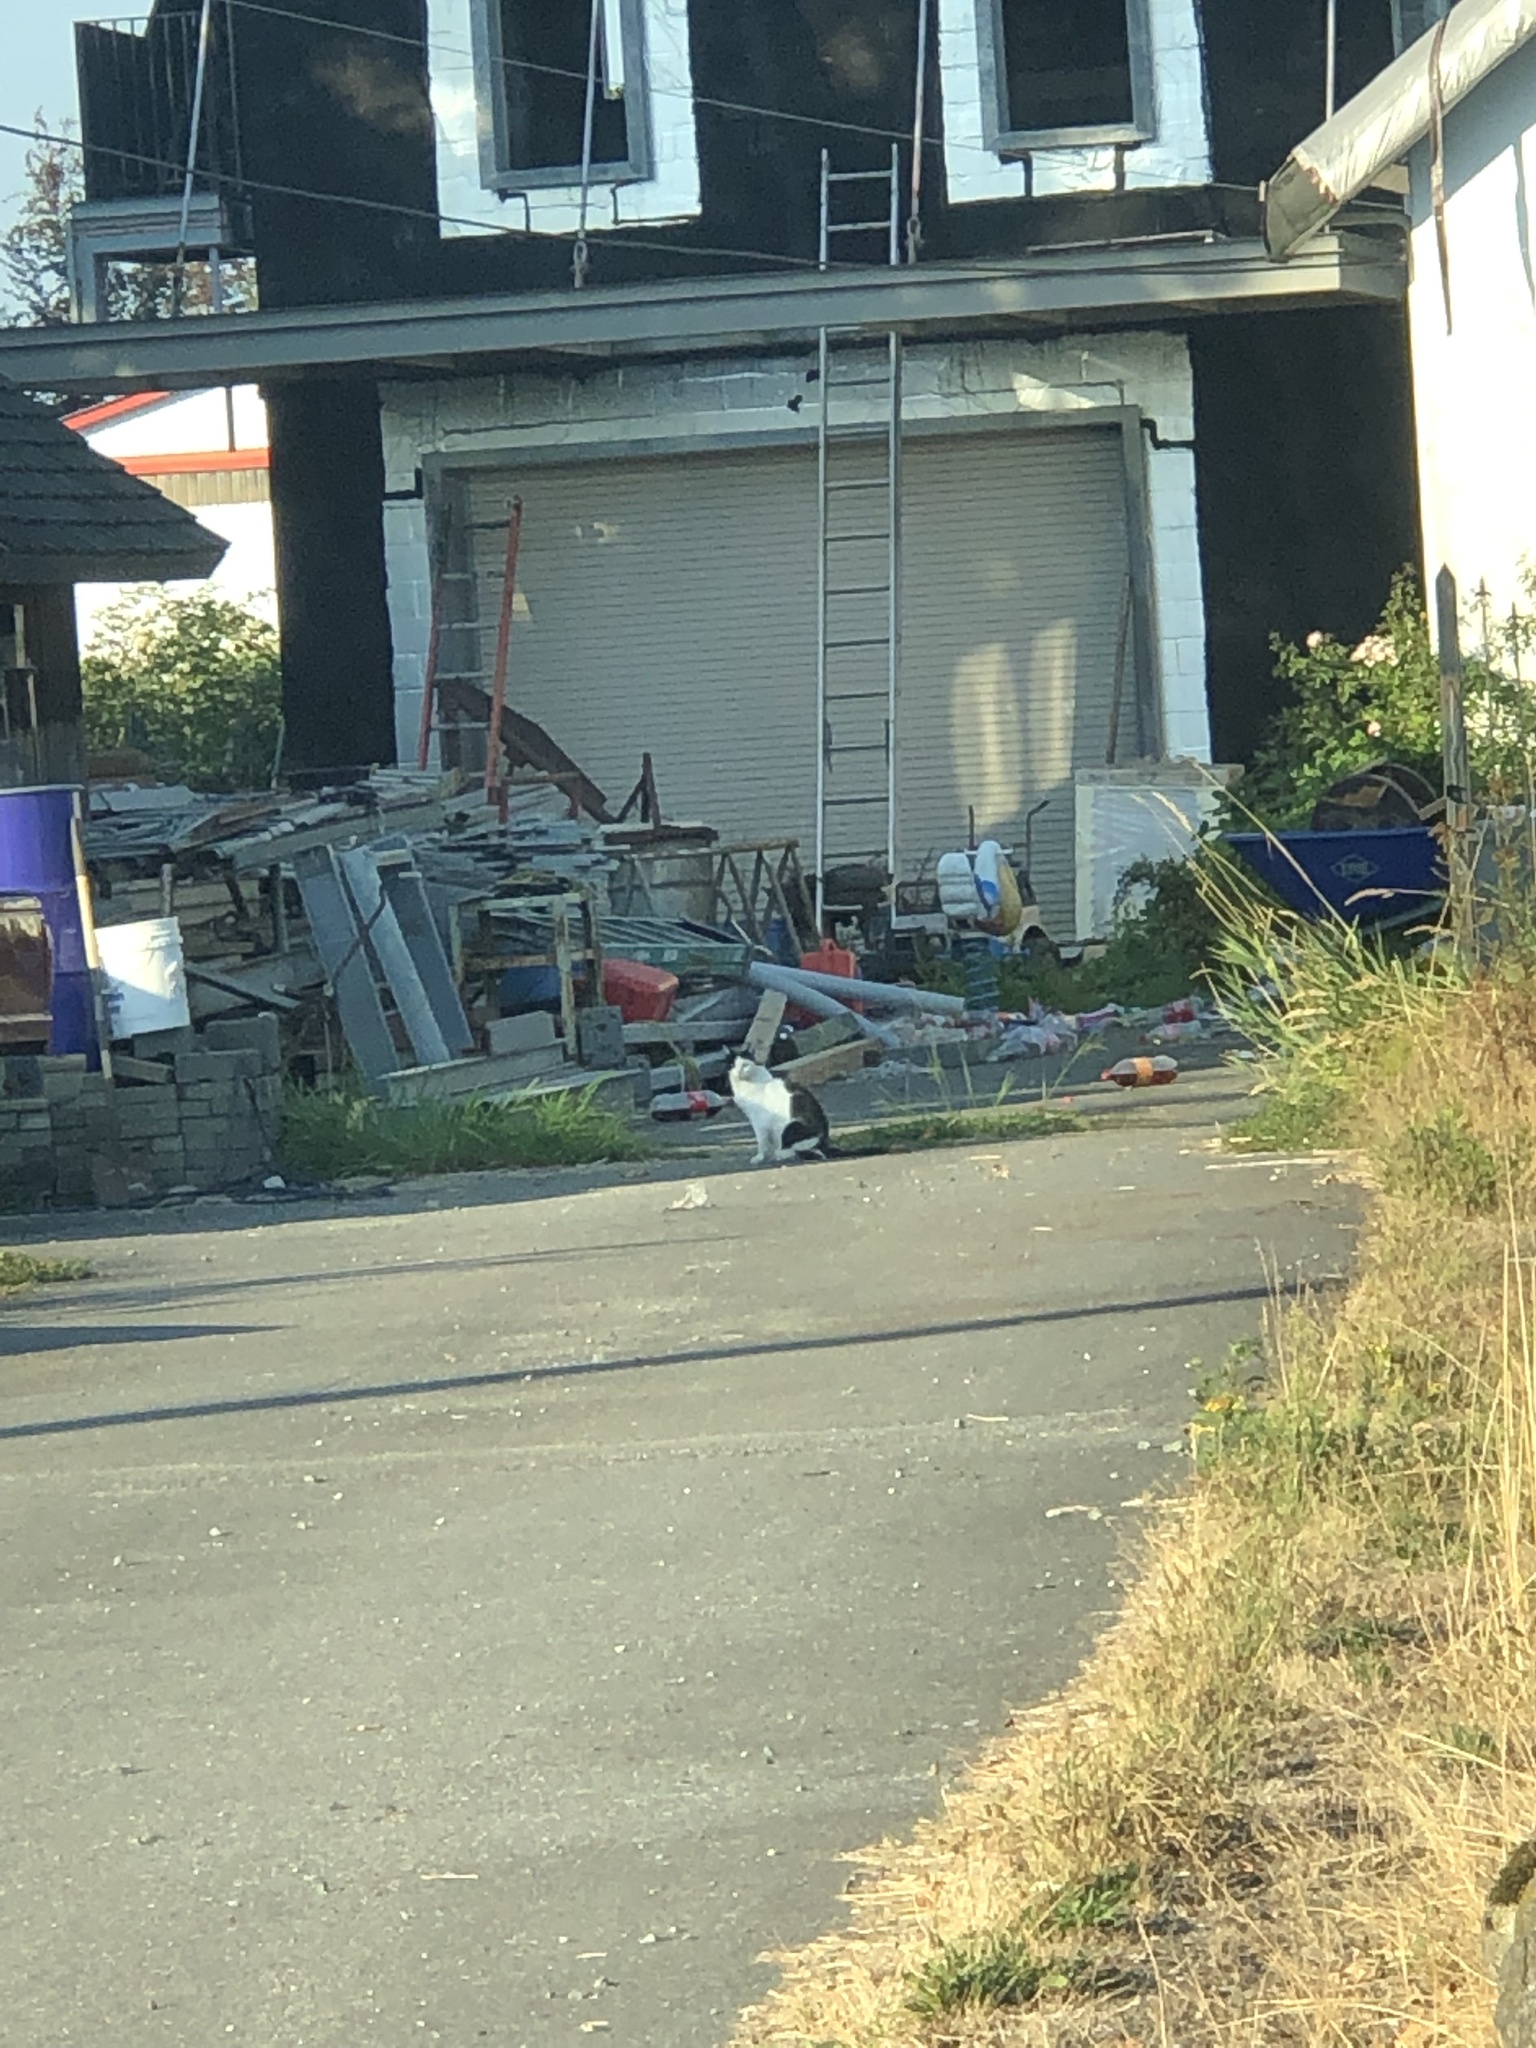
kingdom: Animalia
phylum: Chordata
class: Mammalia
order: Carnivora
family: Felidae
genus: Felis
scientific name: Felis catus
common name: Domestic cat
